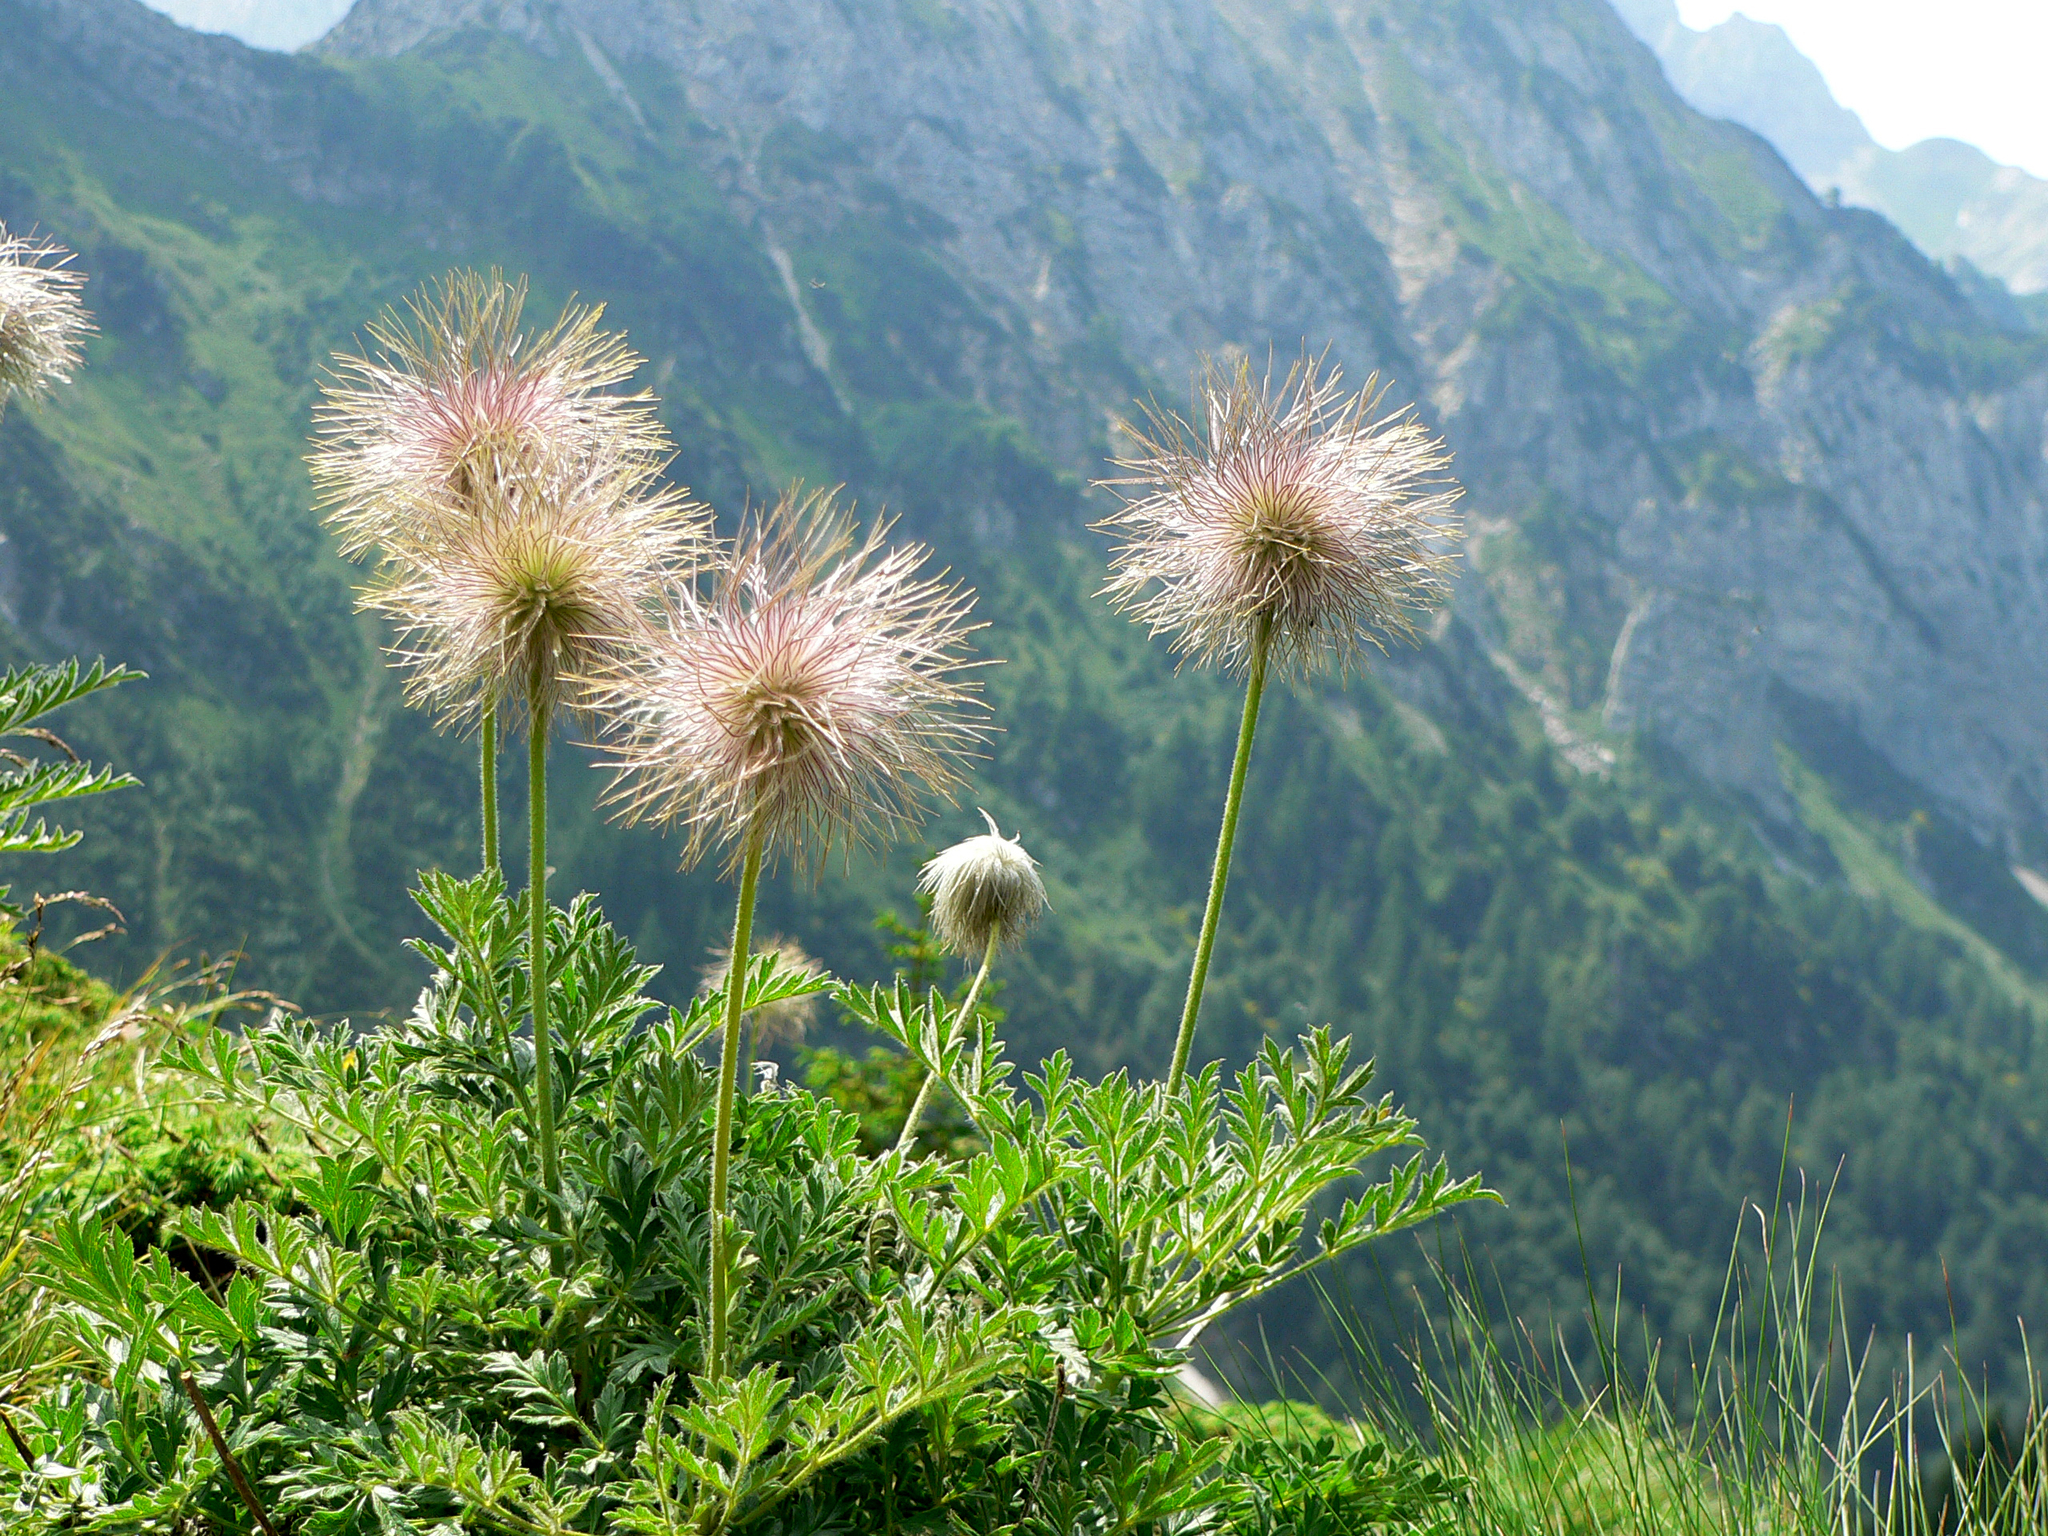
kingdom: Plantae
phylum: Tracheophyta
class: Magnoliopsida
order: Ranunculales
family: Ranunculaceae
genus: Pulsatilla
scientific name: Pulsatilla alpina
